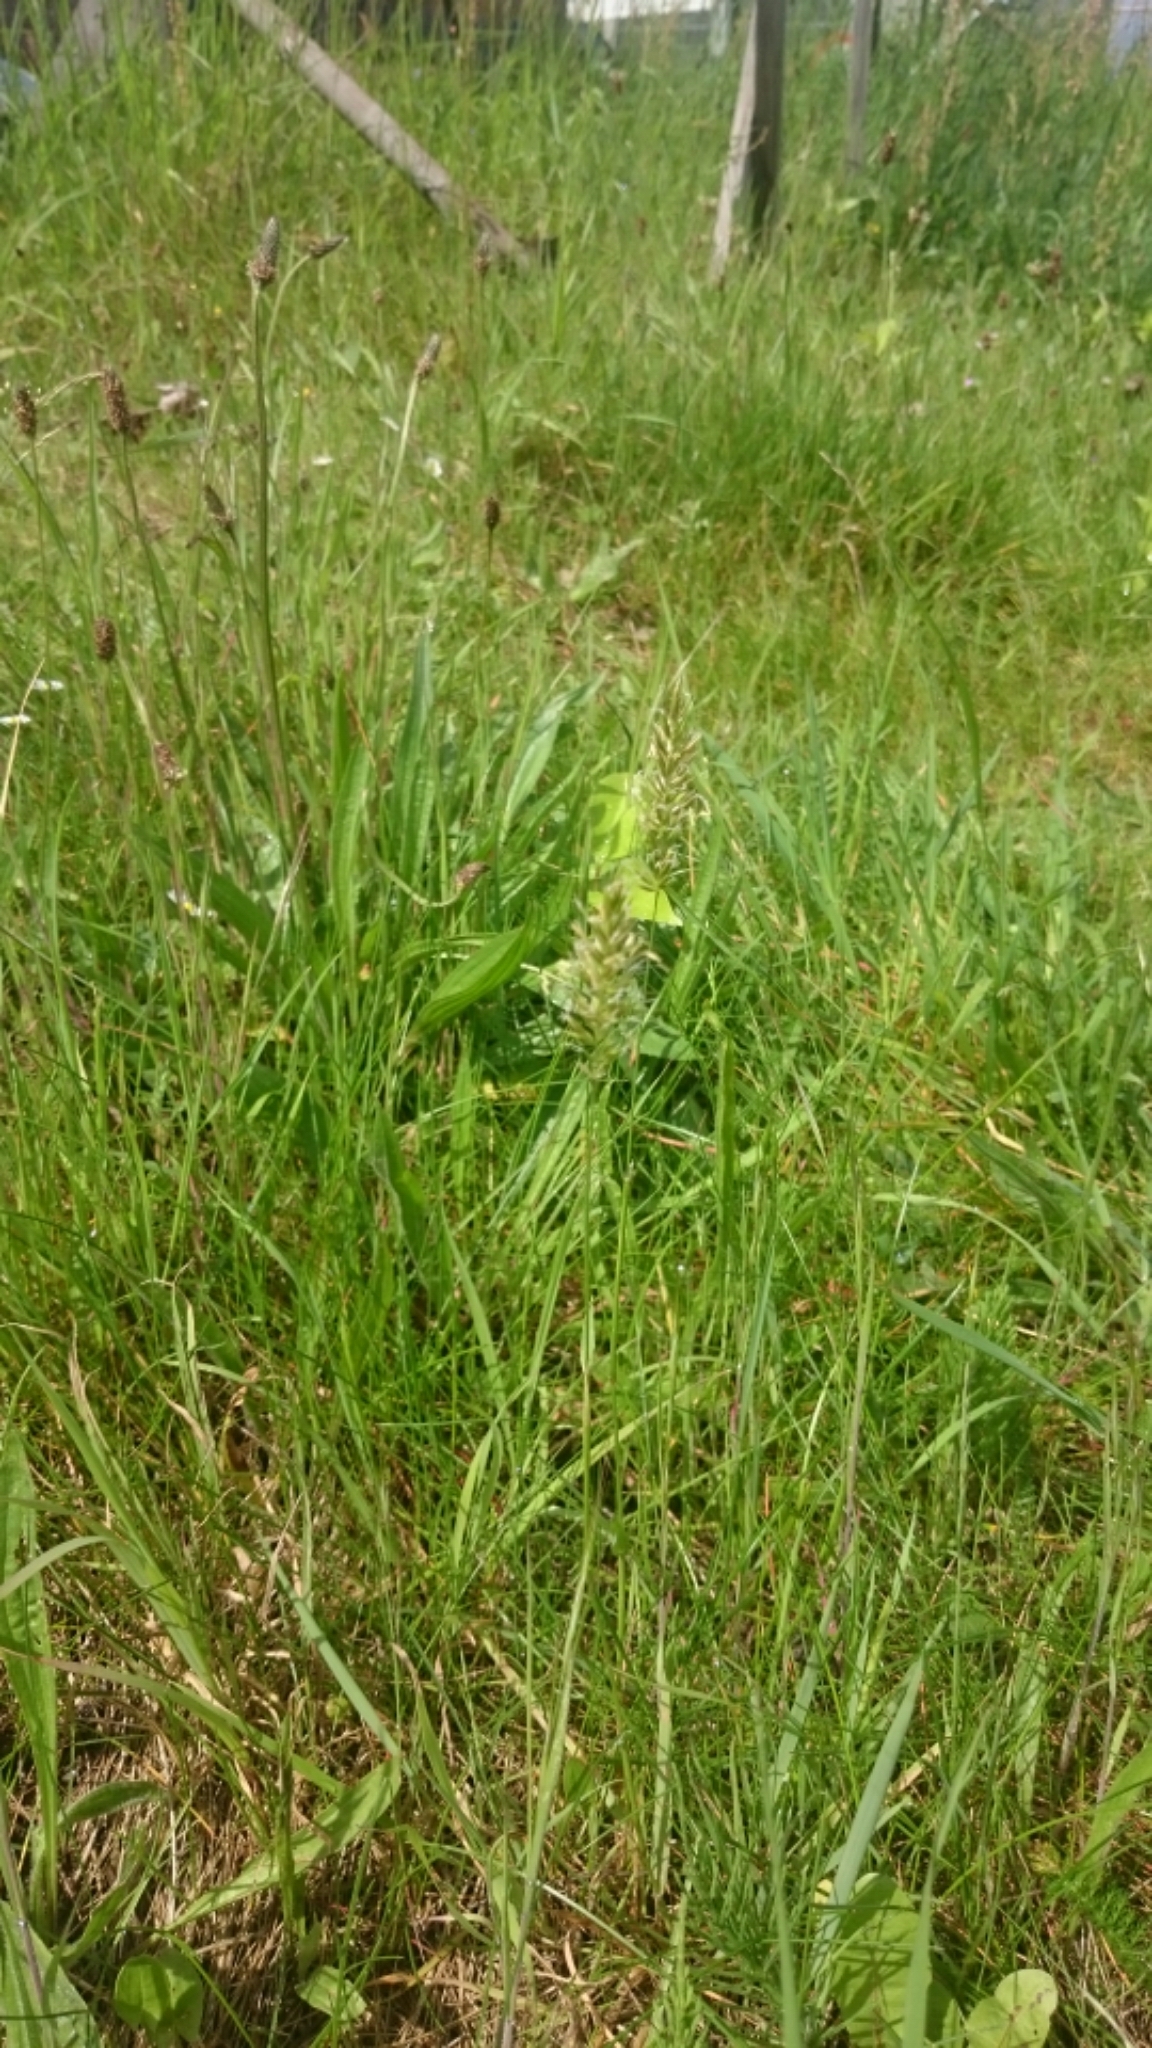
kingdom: Plantae
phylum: Tracheophyta
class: Liliopsida
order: Poales
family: Poaceae
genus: Anthoxanthum
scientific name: Anthoxanthum odoratum
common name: Sweet vernalgrass
